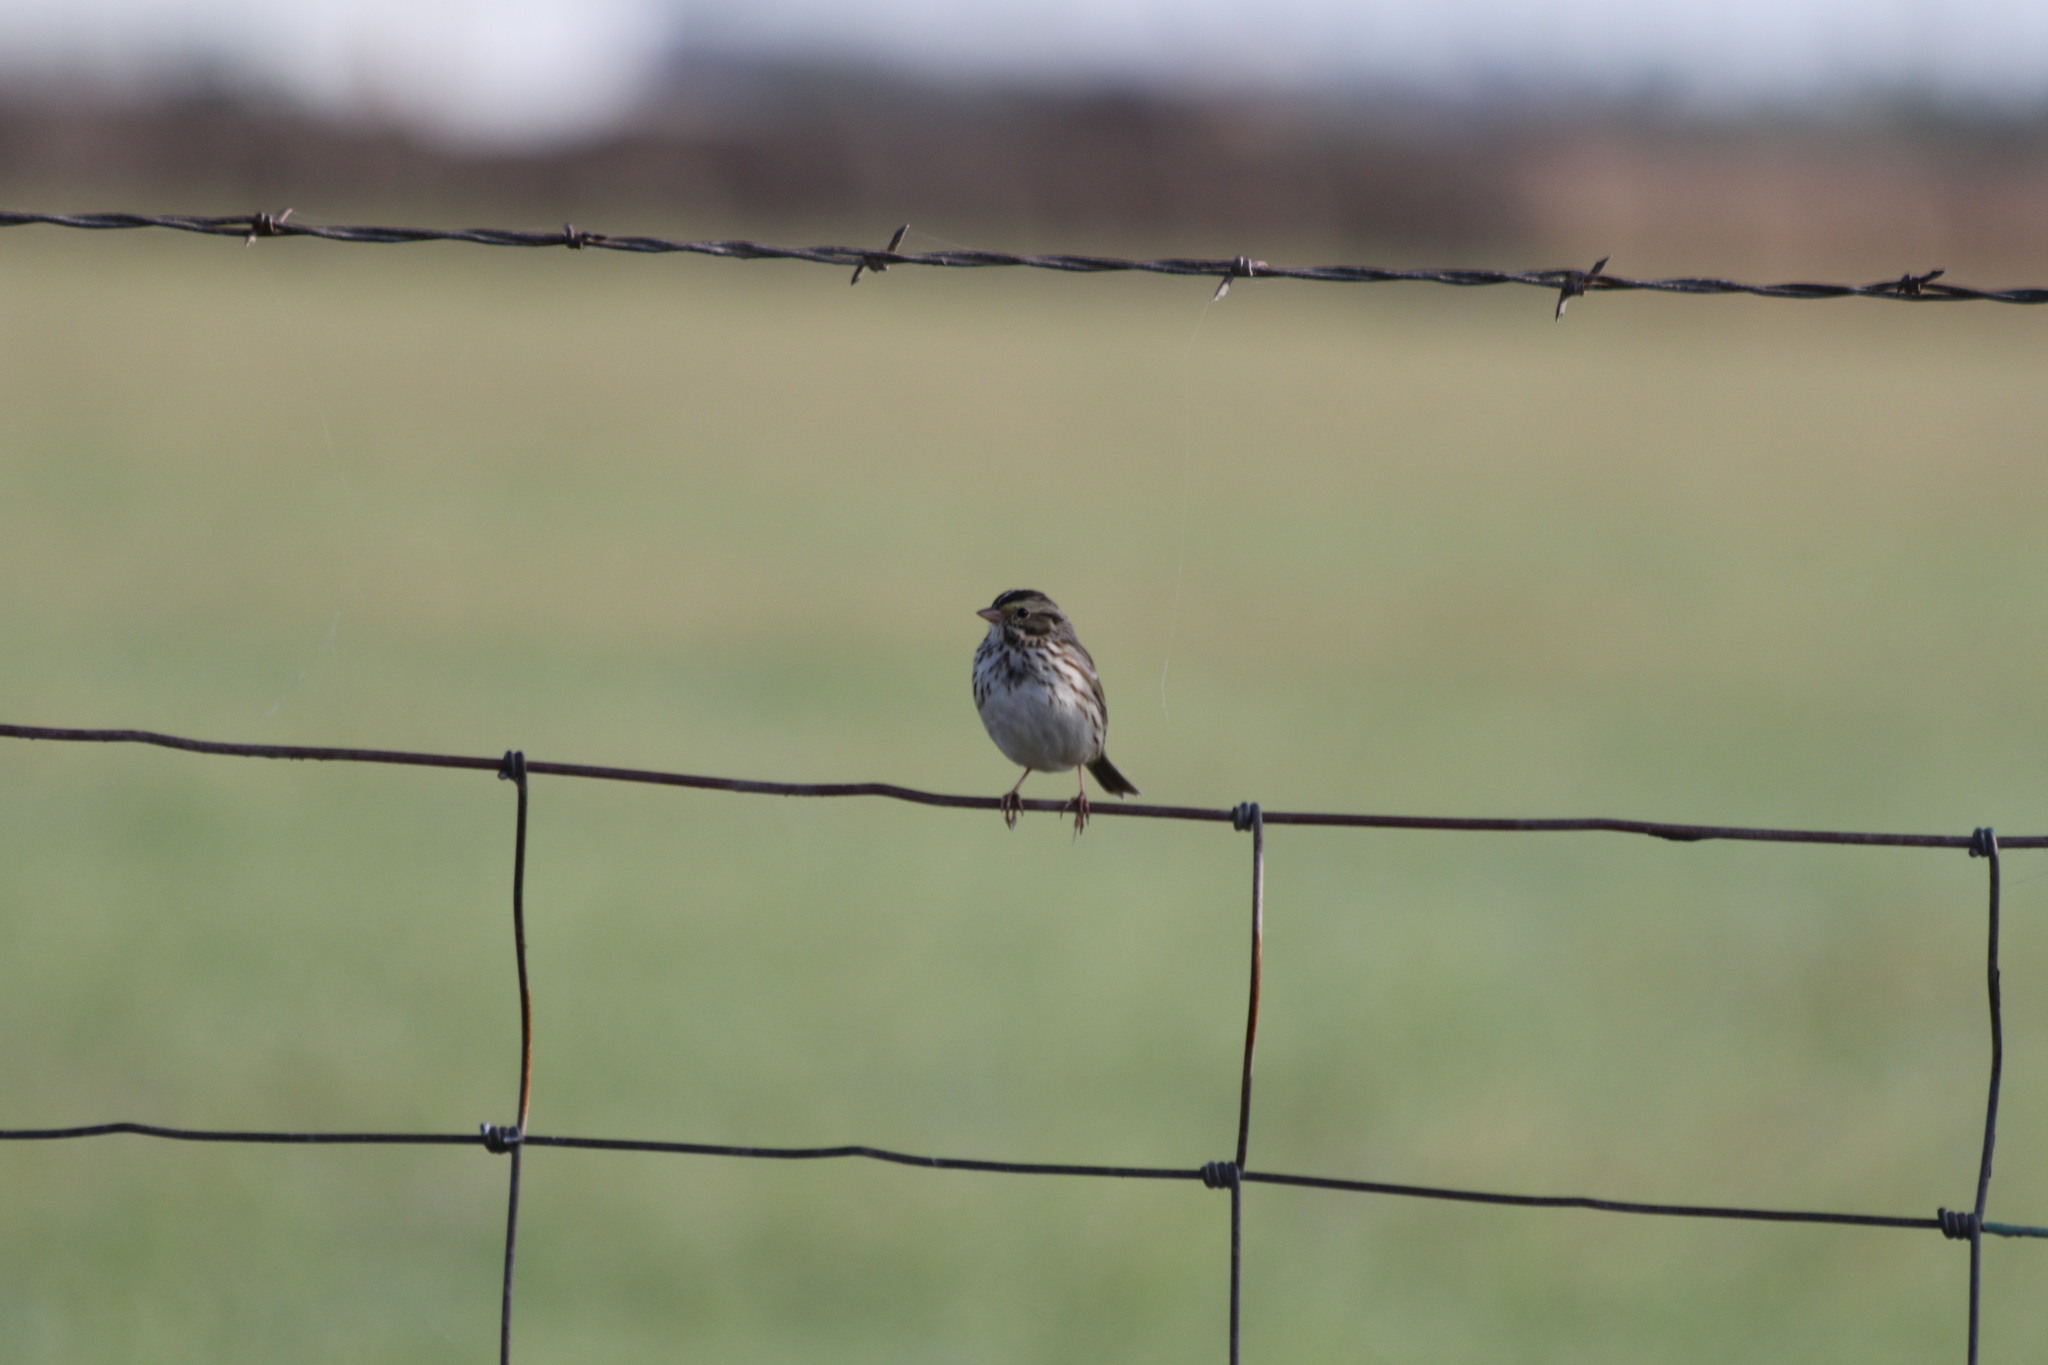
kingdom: Animalia
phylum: Chordata
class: Aves
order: Passeriformes
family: Passerellidae
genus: Passerculus
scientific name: Passerculus sandwichensis
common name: Savannah sparrow
